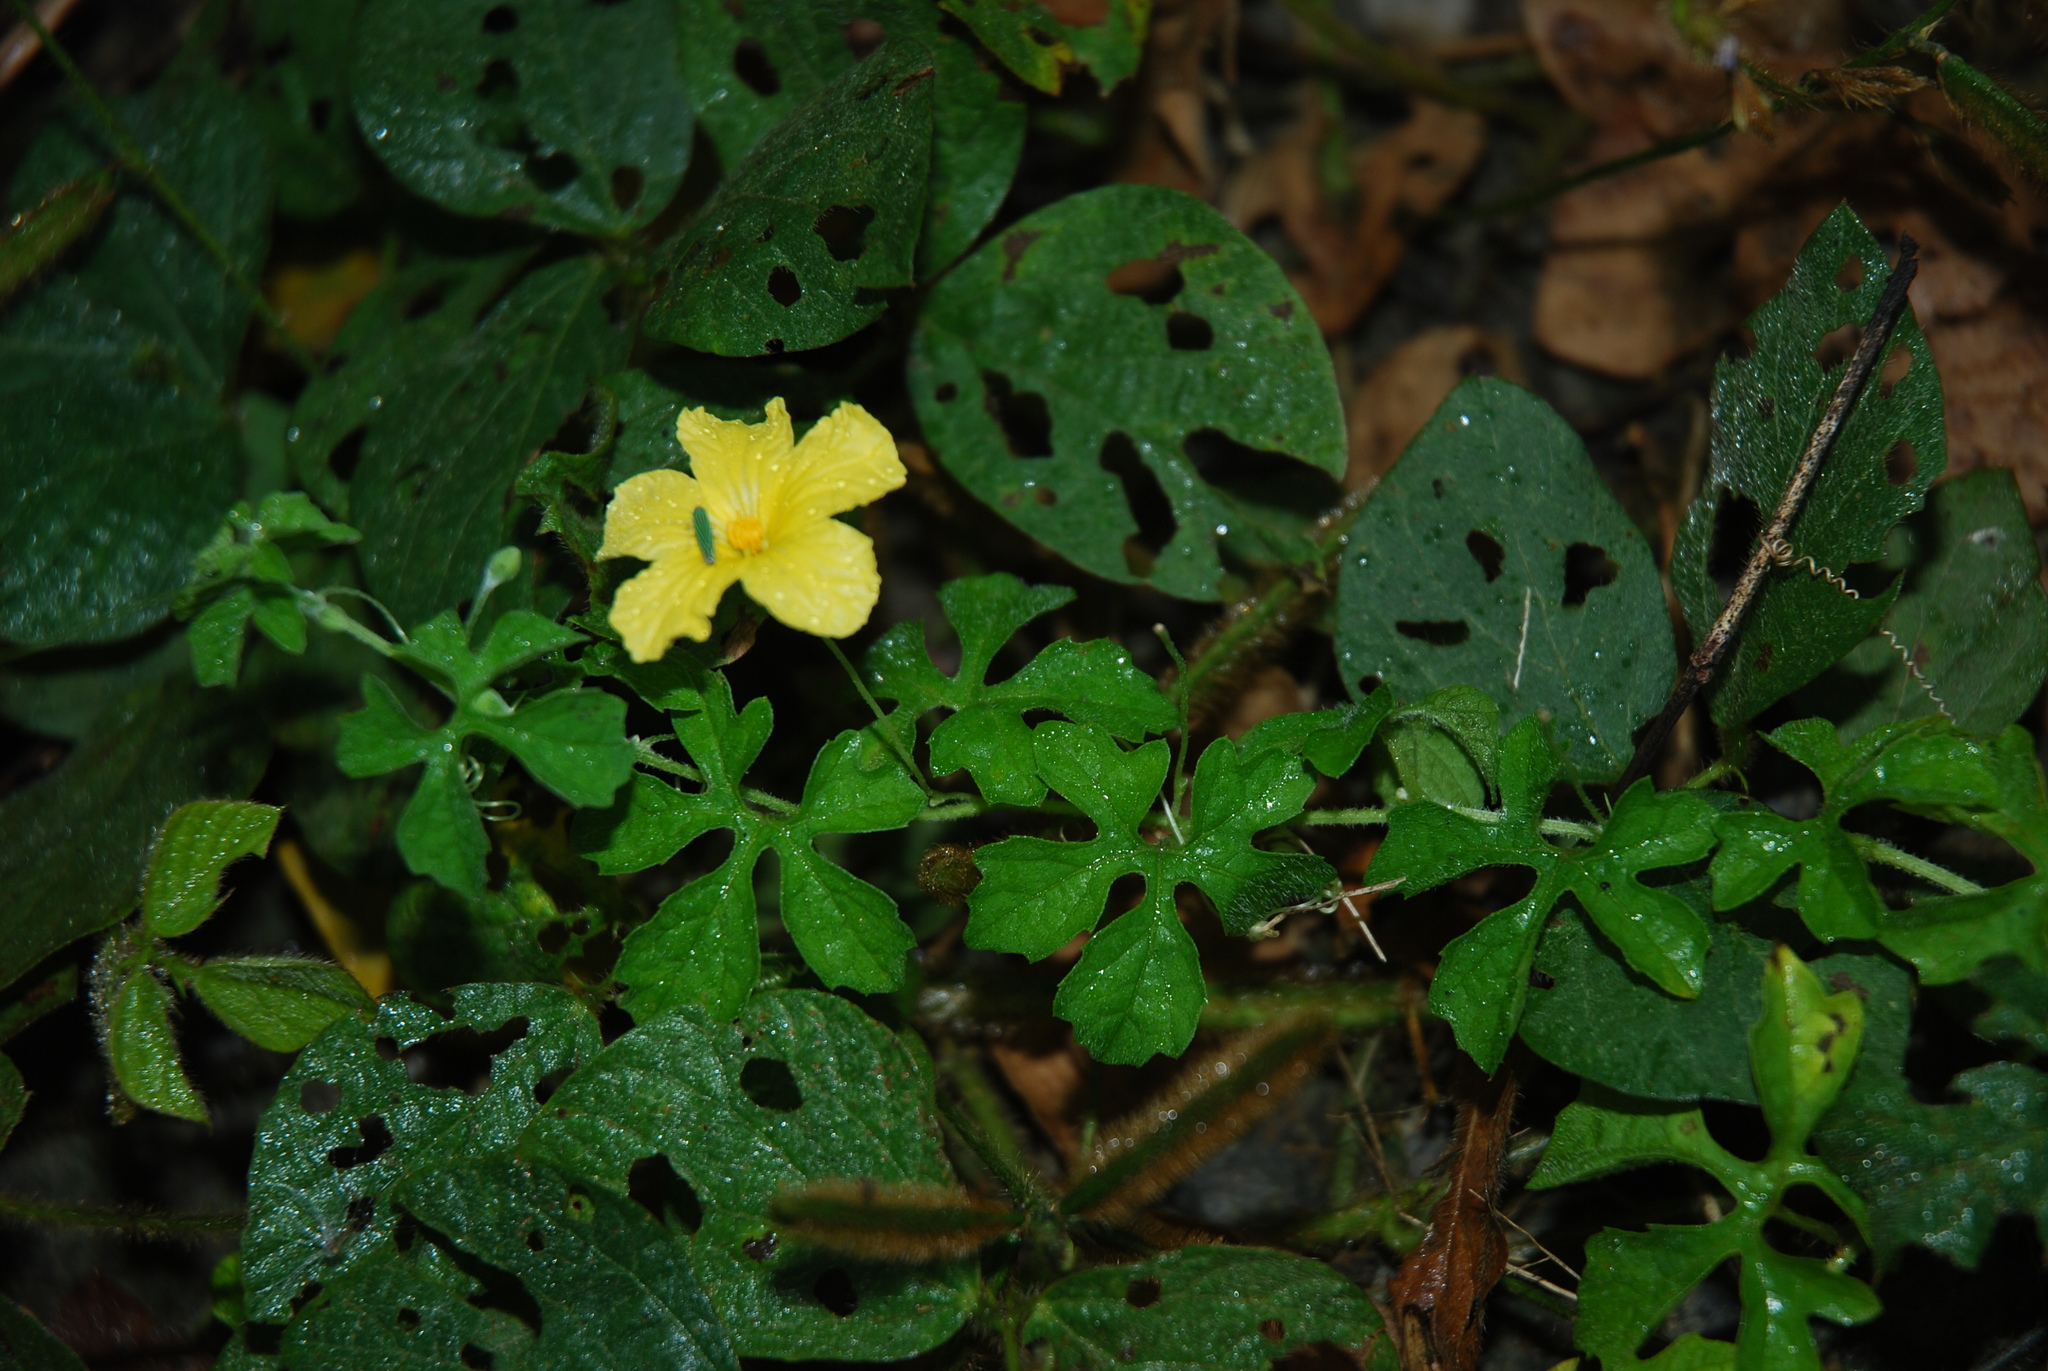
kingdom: Plantae
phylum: Tracheophyta
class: Magnoliopsida
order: Cucurbitales
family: Cucurbitaceae
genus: Momordica
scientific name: Momordica charantia
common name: Balsampear
